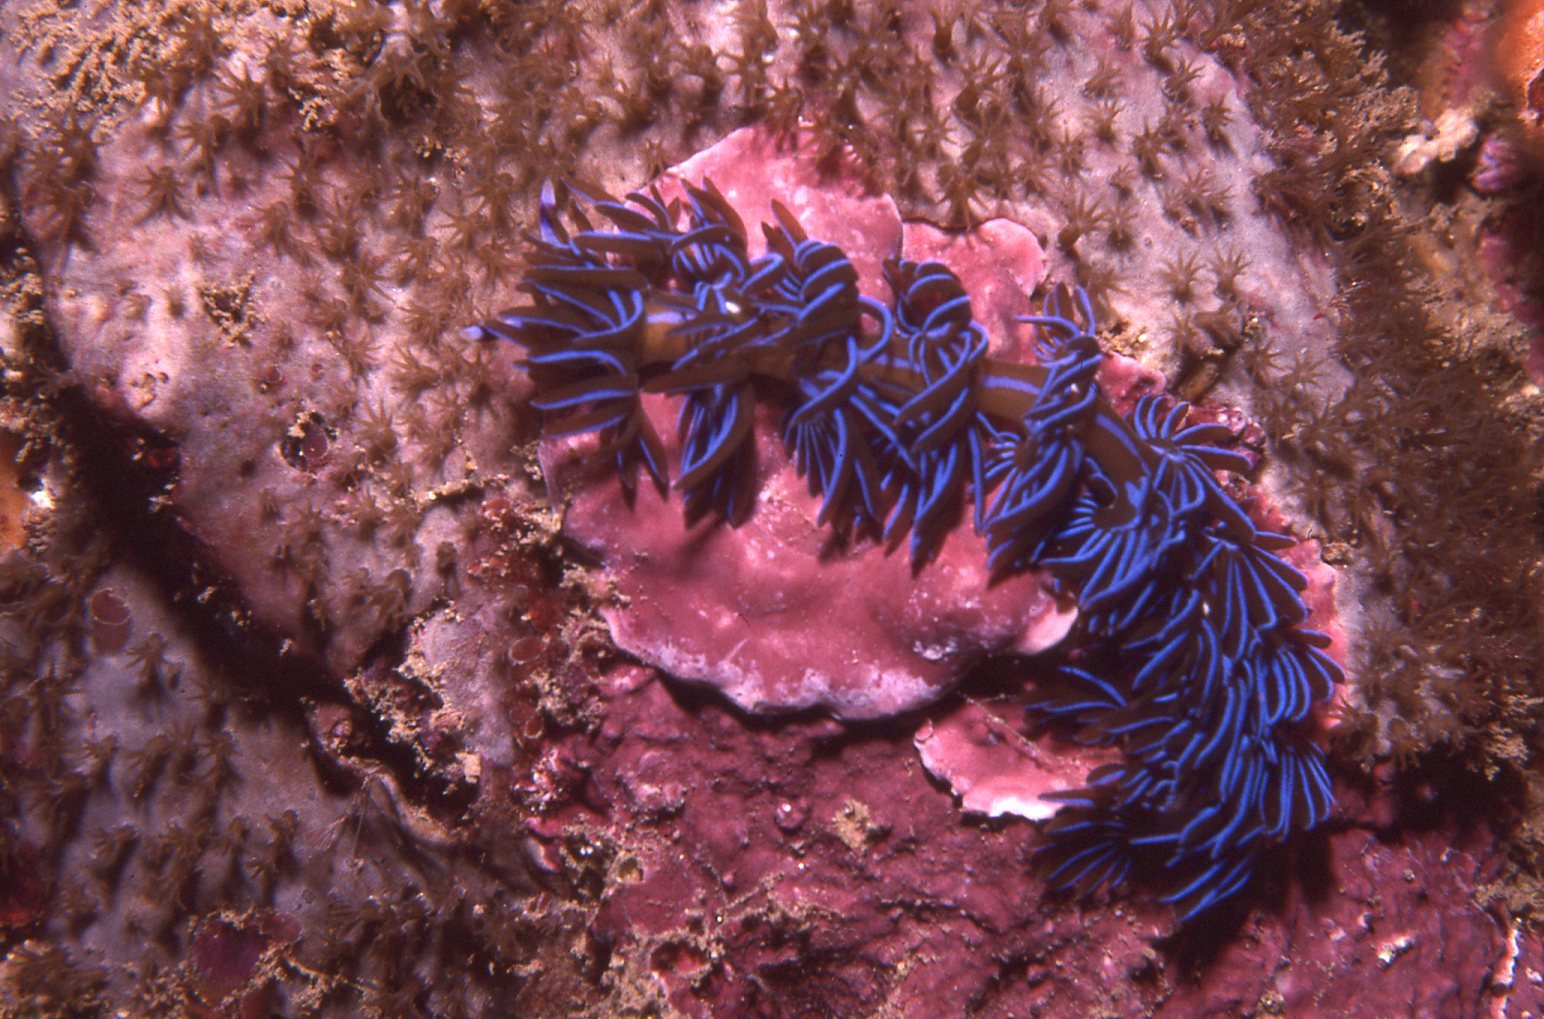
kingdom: Animalia
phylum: Mollusca
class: Gastropoda
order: Nudibranchia
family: Facelinidae
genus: Pteraeolidia
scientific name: Pteraeolidia ianthina
